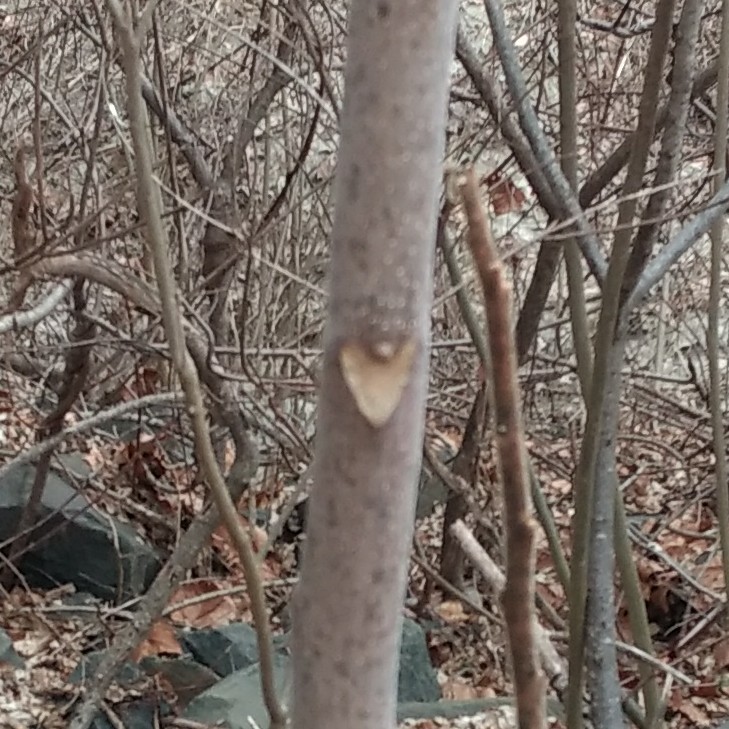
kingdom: Plantae
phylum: Tracheophyta
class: Magnoliopsida
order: Sapindales
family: Simaroubaceae
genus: Ailanthus
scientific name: Ailanthus altissima
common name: Tree-of-heaven
